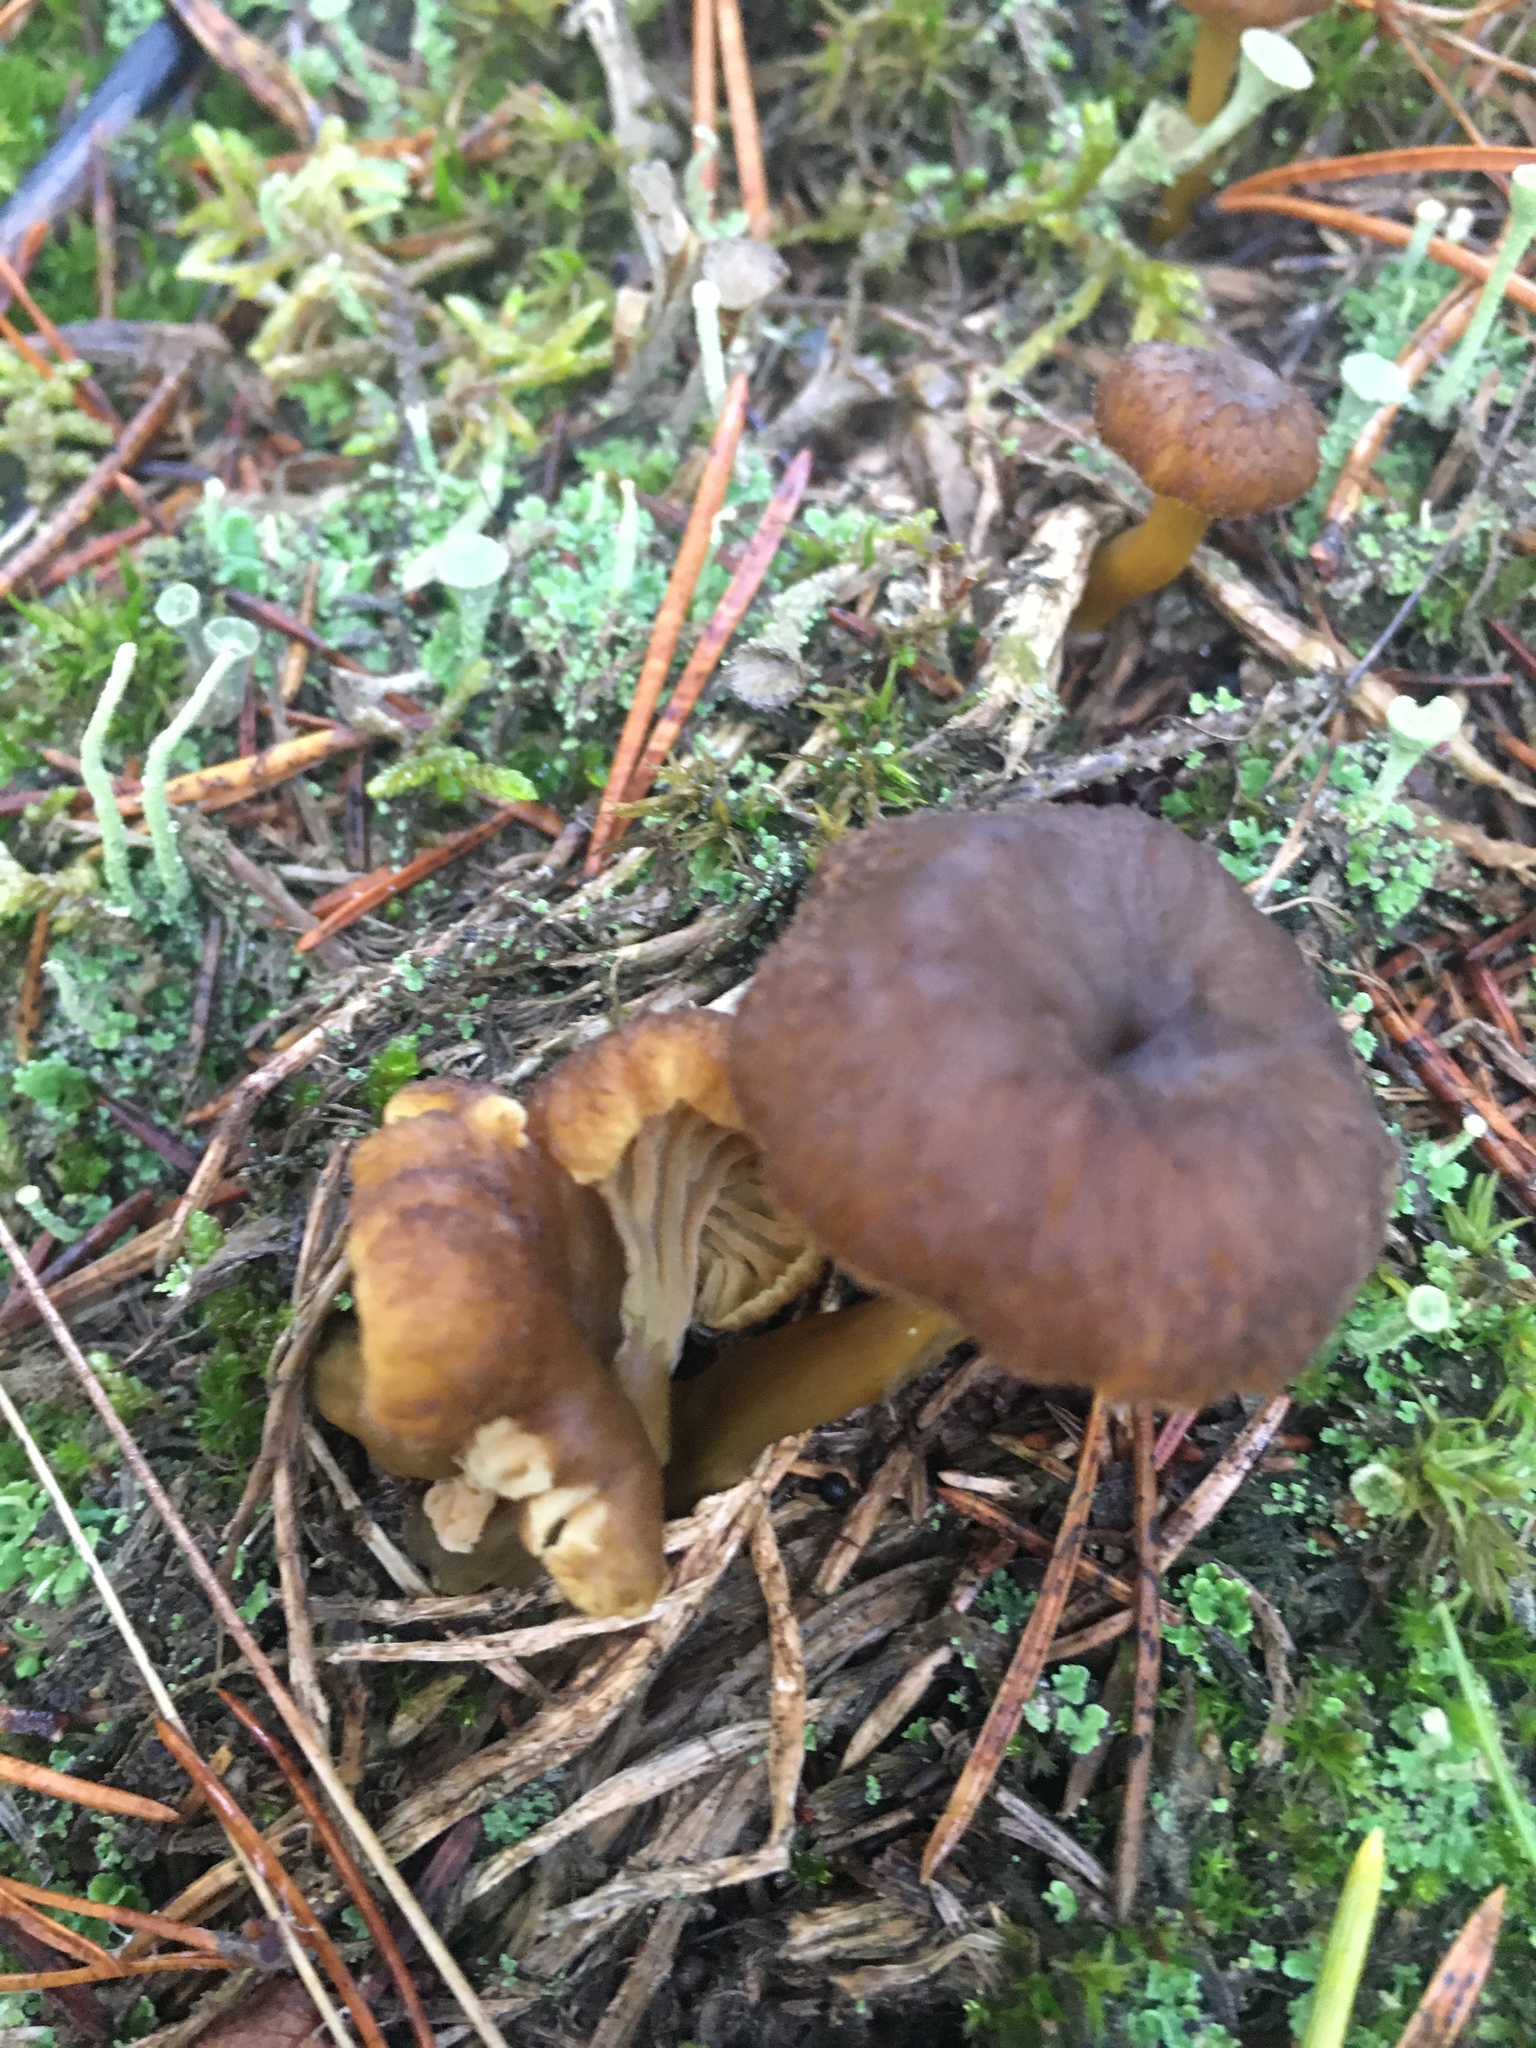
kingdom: Fungi
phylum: Basidiomycota
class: Agaricomycetes
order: Cantharellales
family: Hydnaceae
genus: Craterellus
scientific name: Craterellus tubaeformis
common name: Yellowfoot
